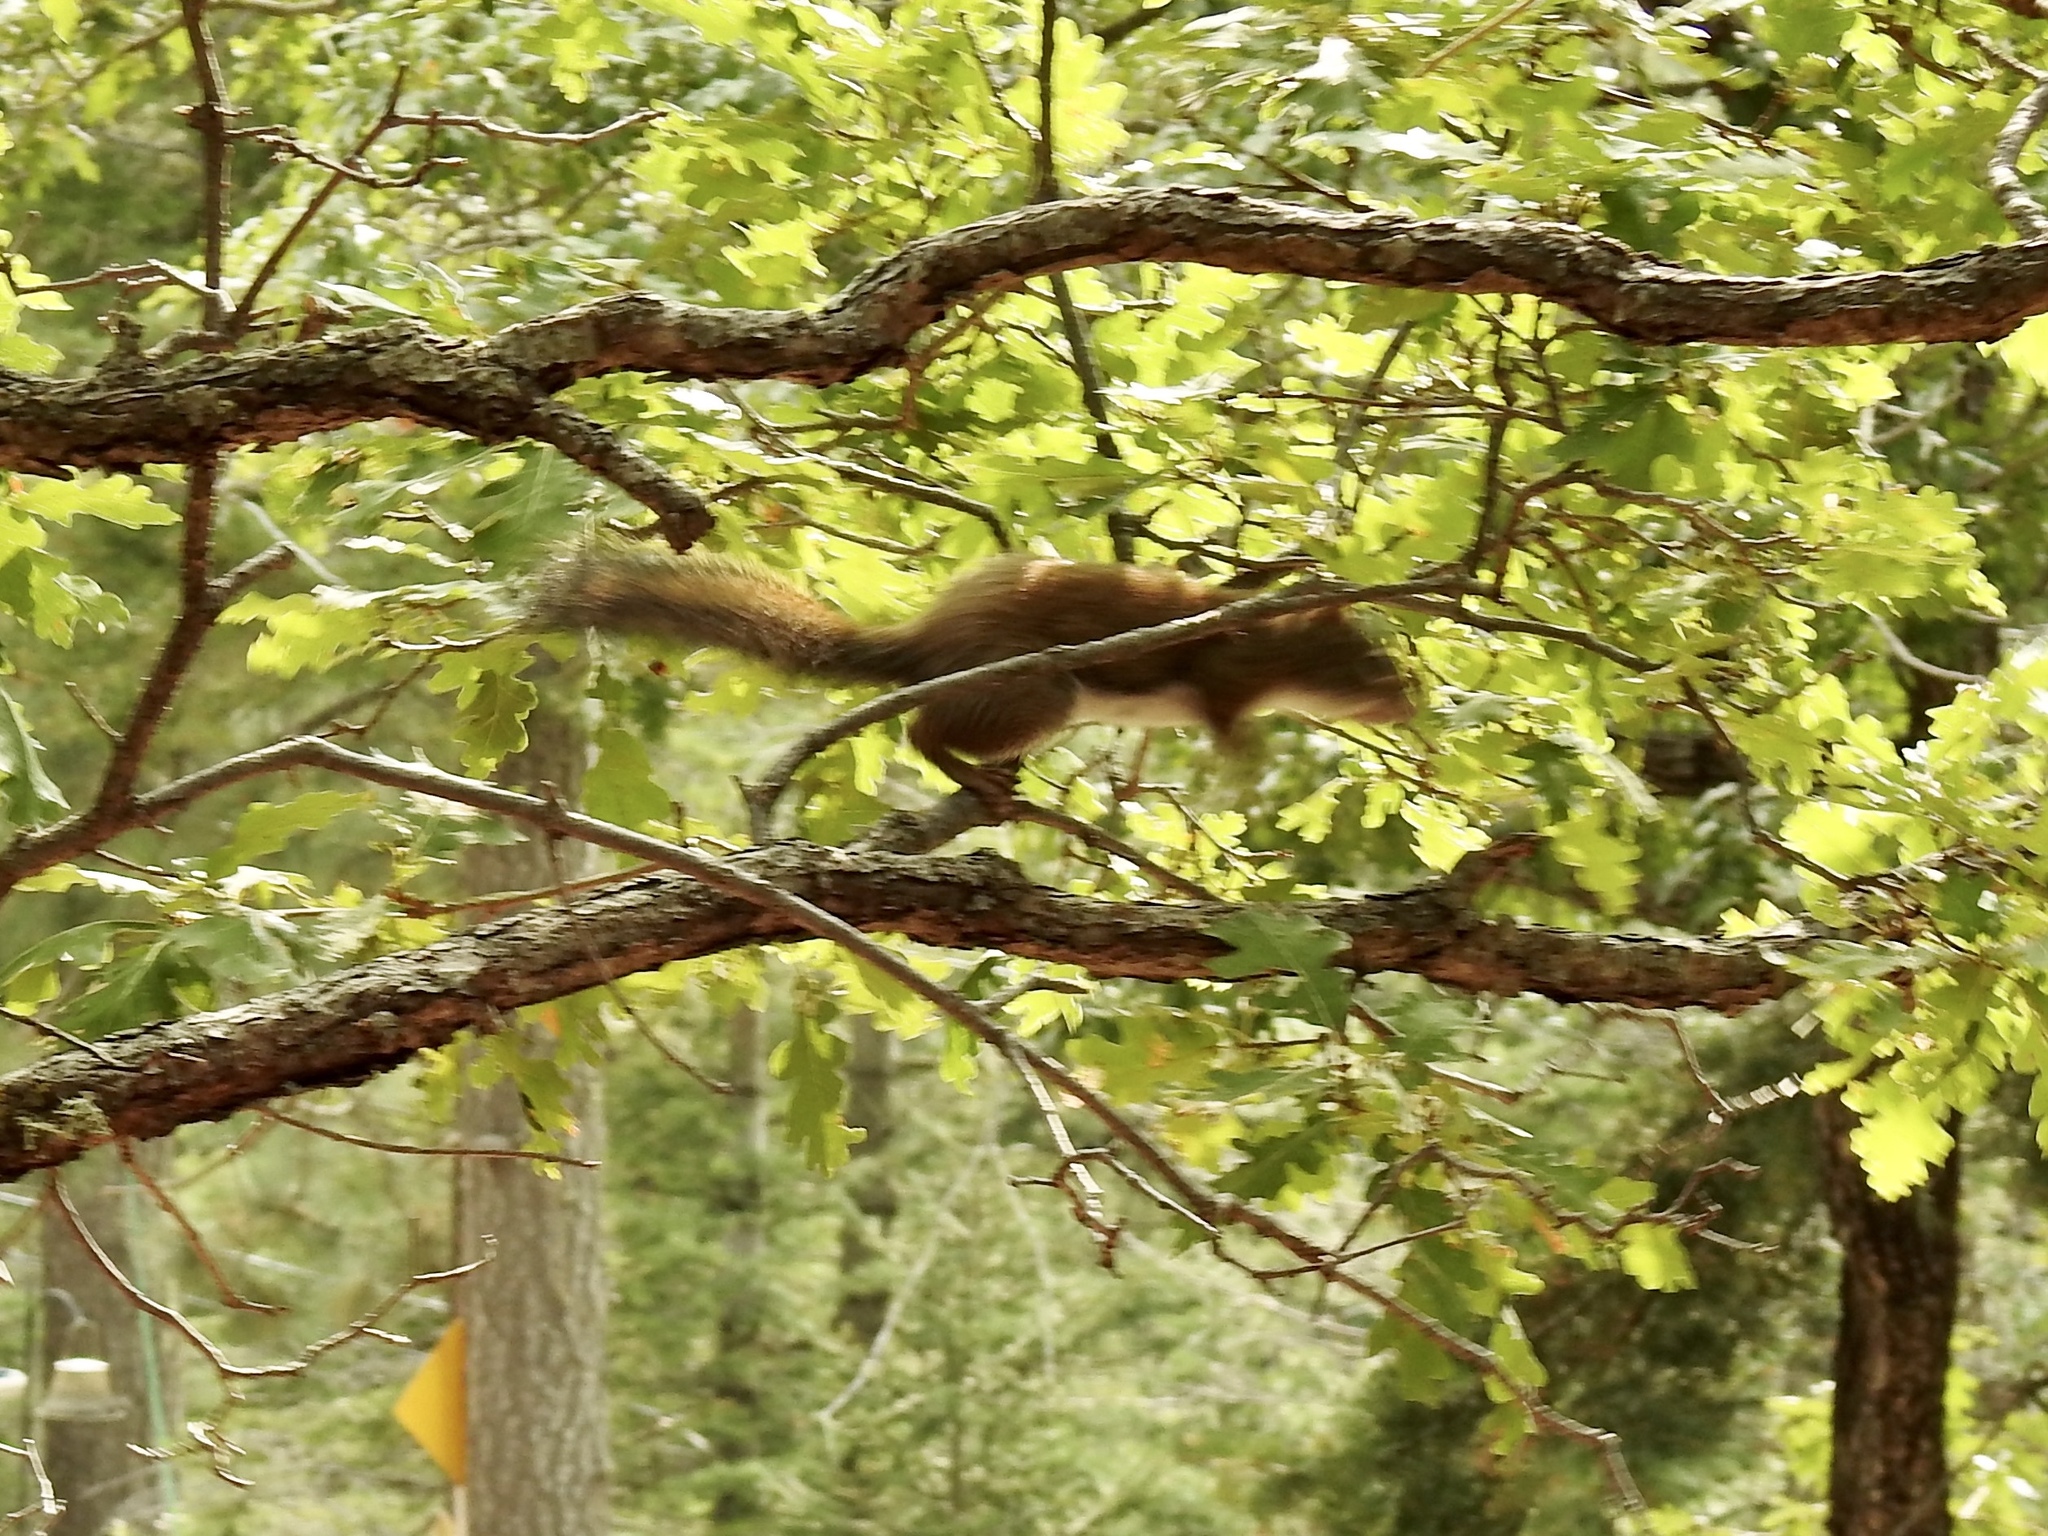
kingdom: Animalia
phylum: Chordata
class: Mammalia
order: Rodentia
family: Sciuridae
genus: Tamiasciurus
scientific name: Tamiasciurus hudsonicus
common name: Red squirrel
